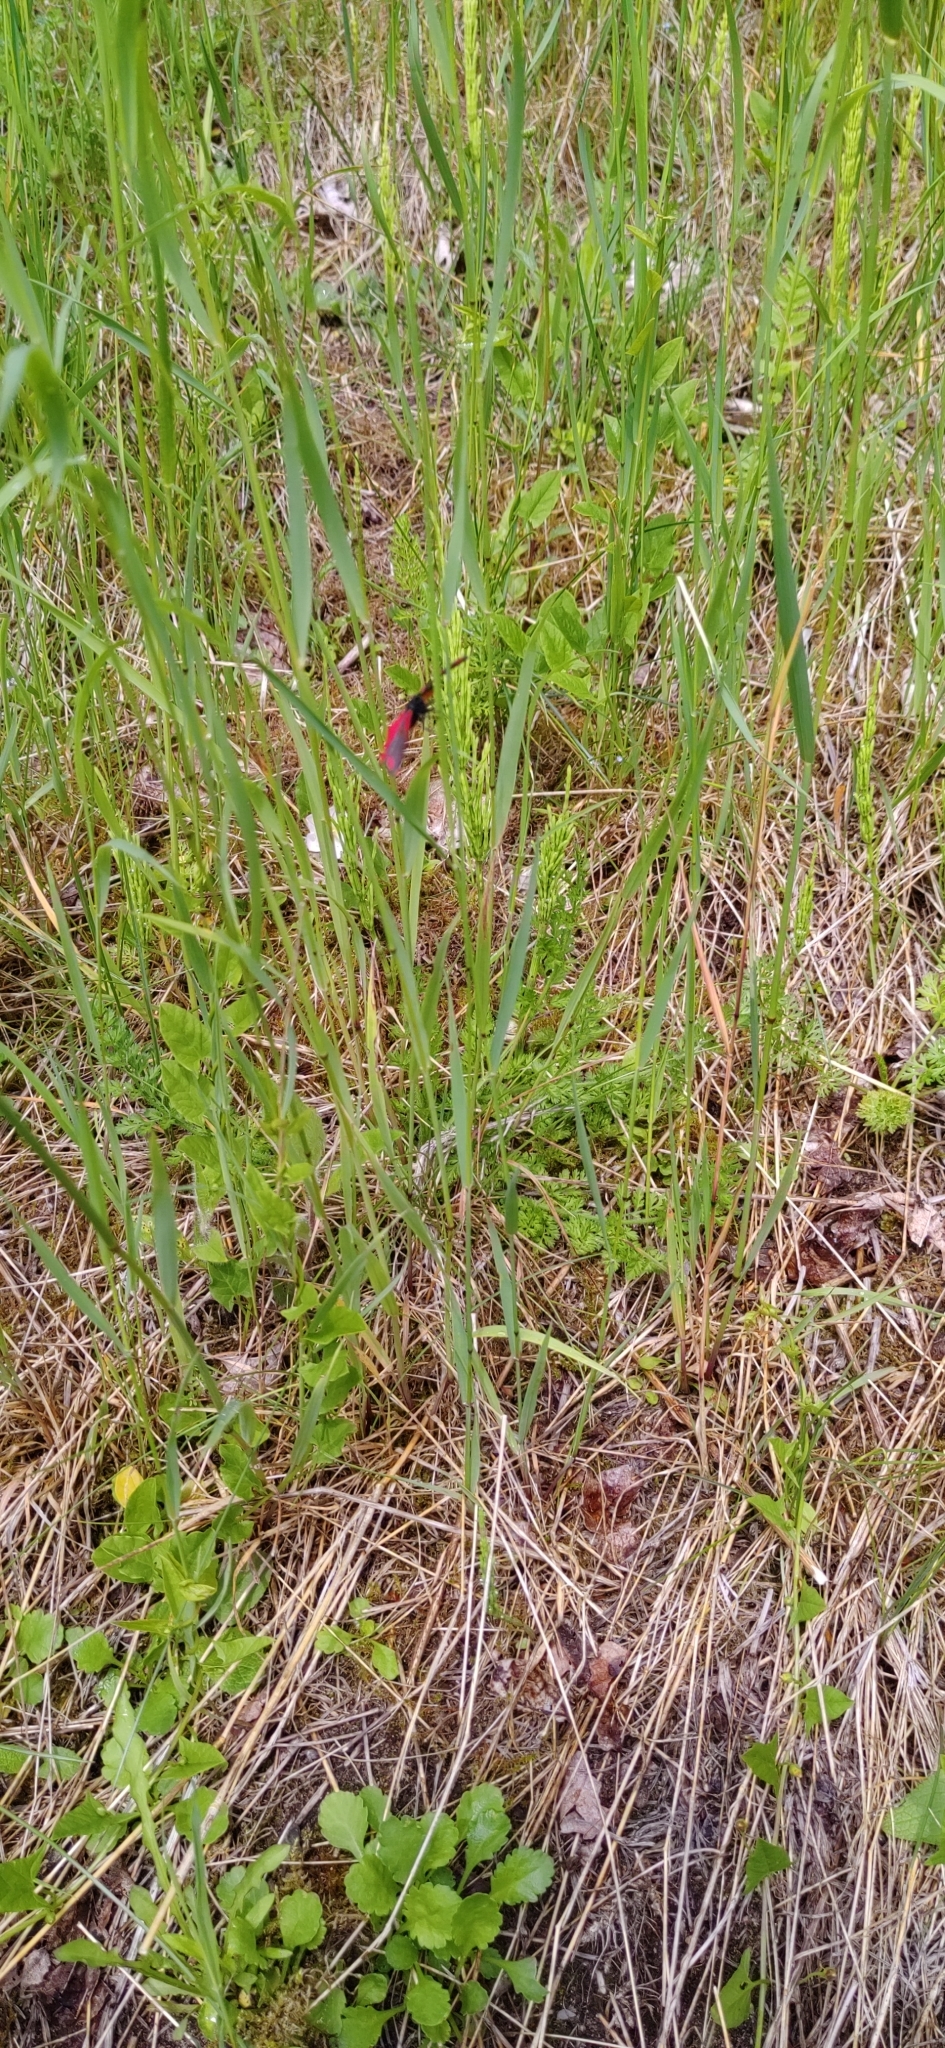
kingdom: Animalia
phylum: Arthropoda
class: Insecta
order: Lepidoptera
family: Erebidae
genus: Tyria
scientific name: Tyria jacobaeae
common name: Cinnabar
